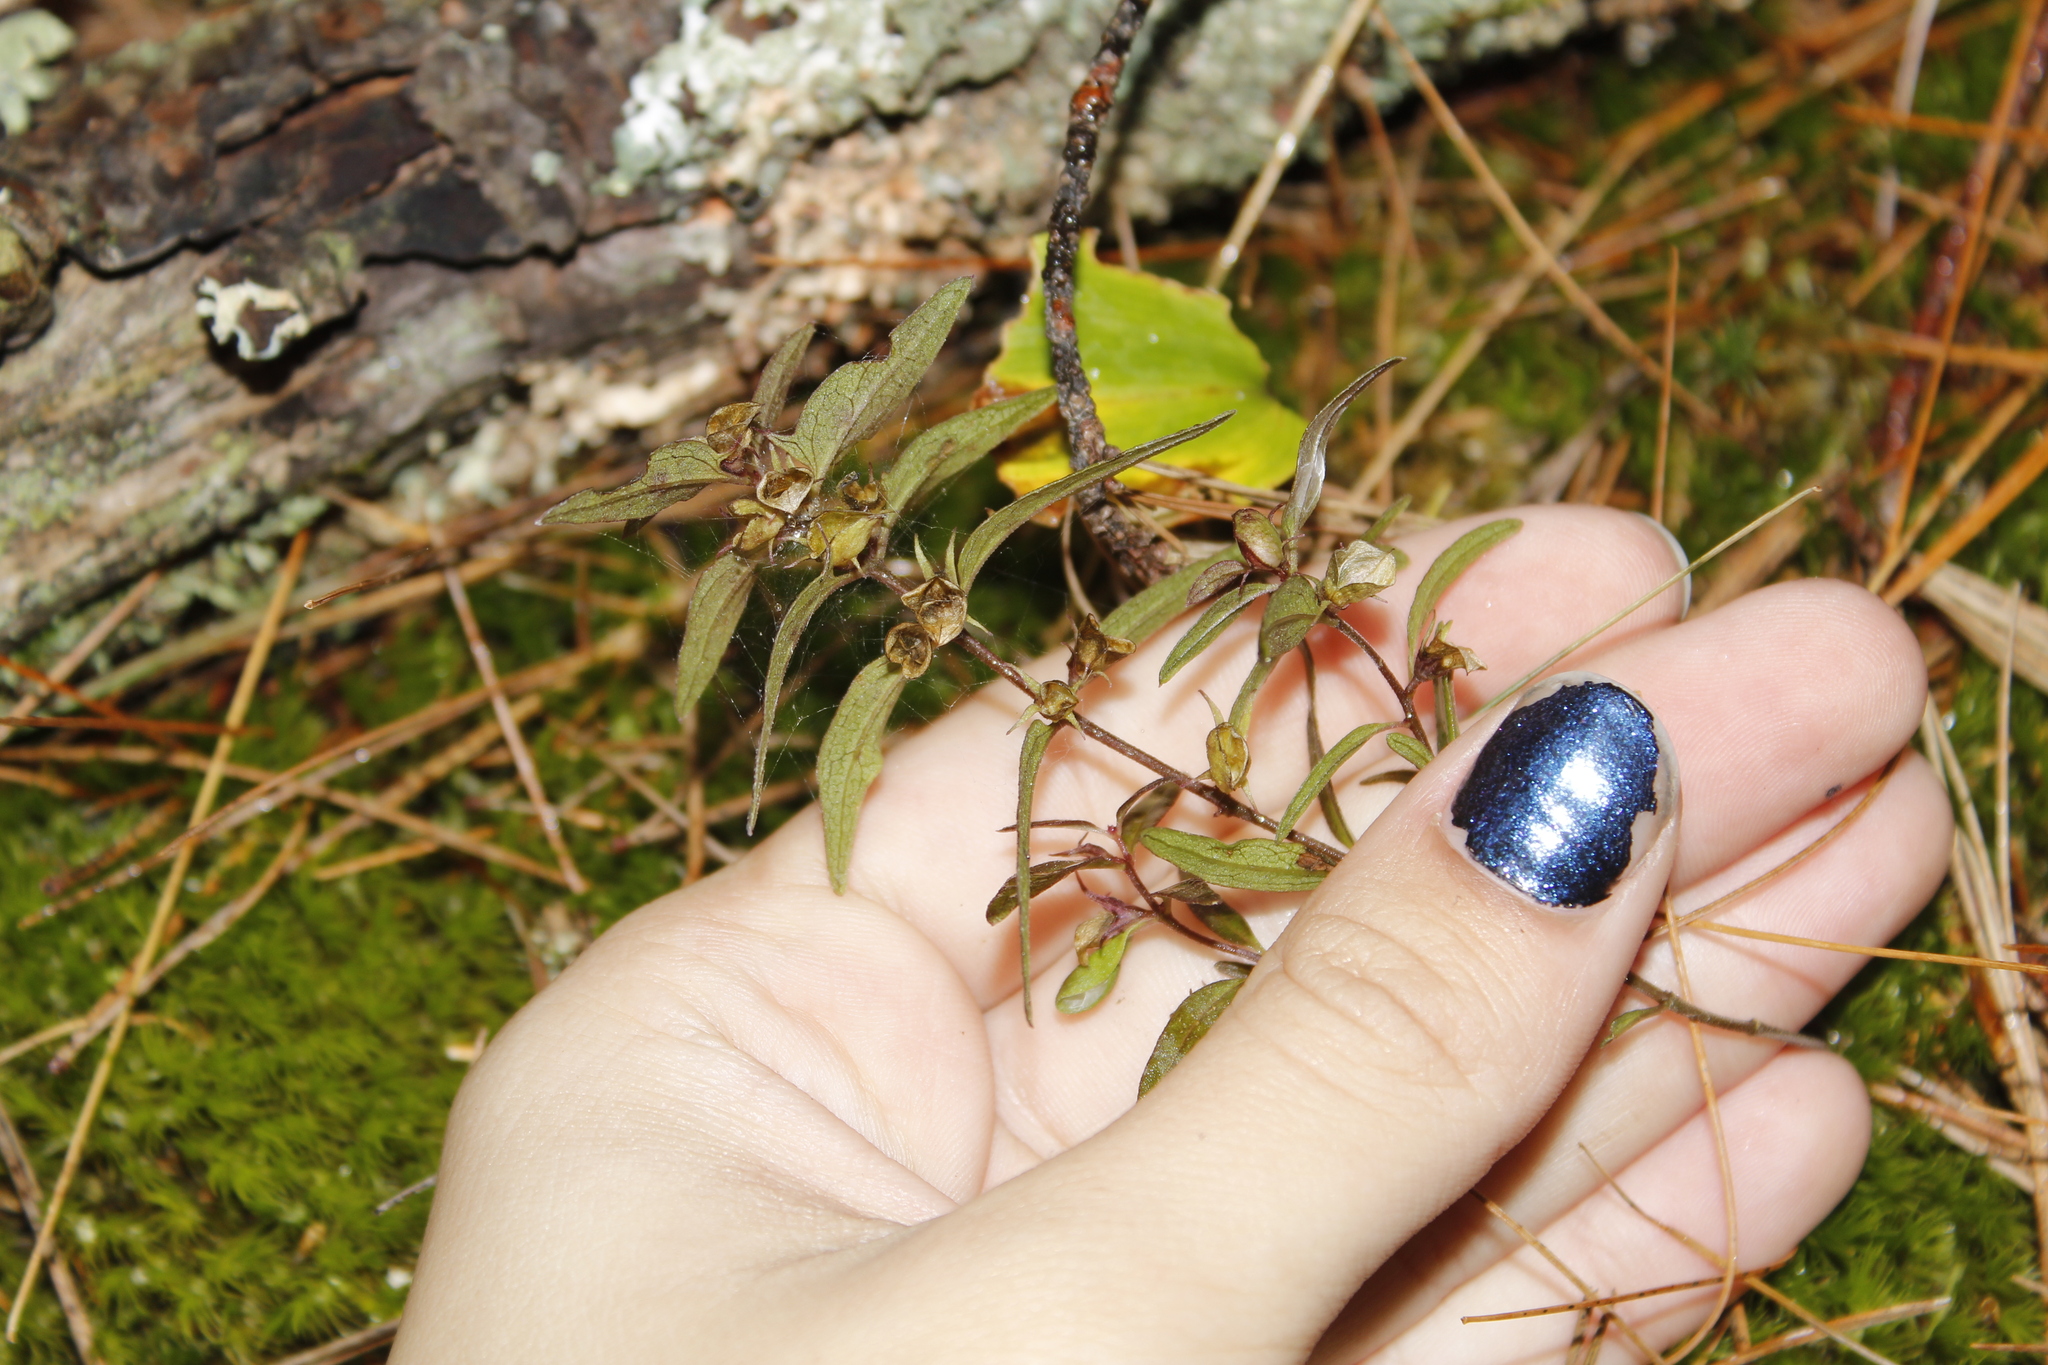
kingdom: Plantae
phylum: Tracheophyta
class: Magnoliopsida
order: Lamiales
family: Orobanchaceae
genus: Melampyrum
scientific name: Melampyrum lineare
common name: American cow-wheat
